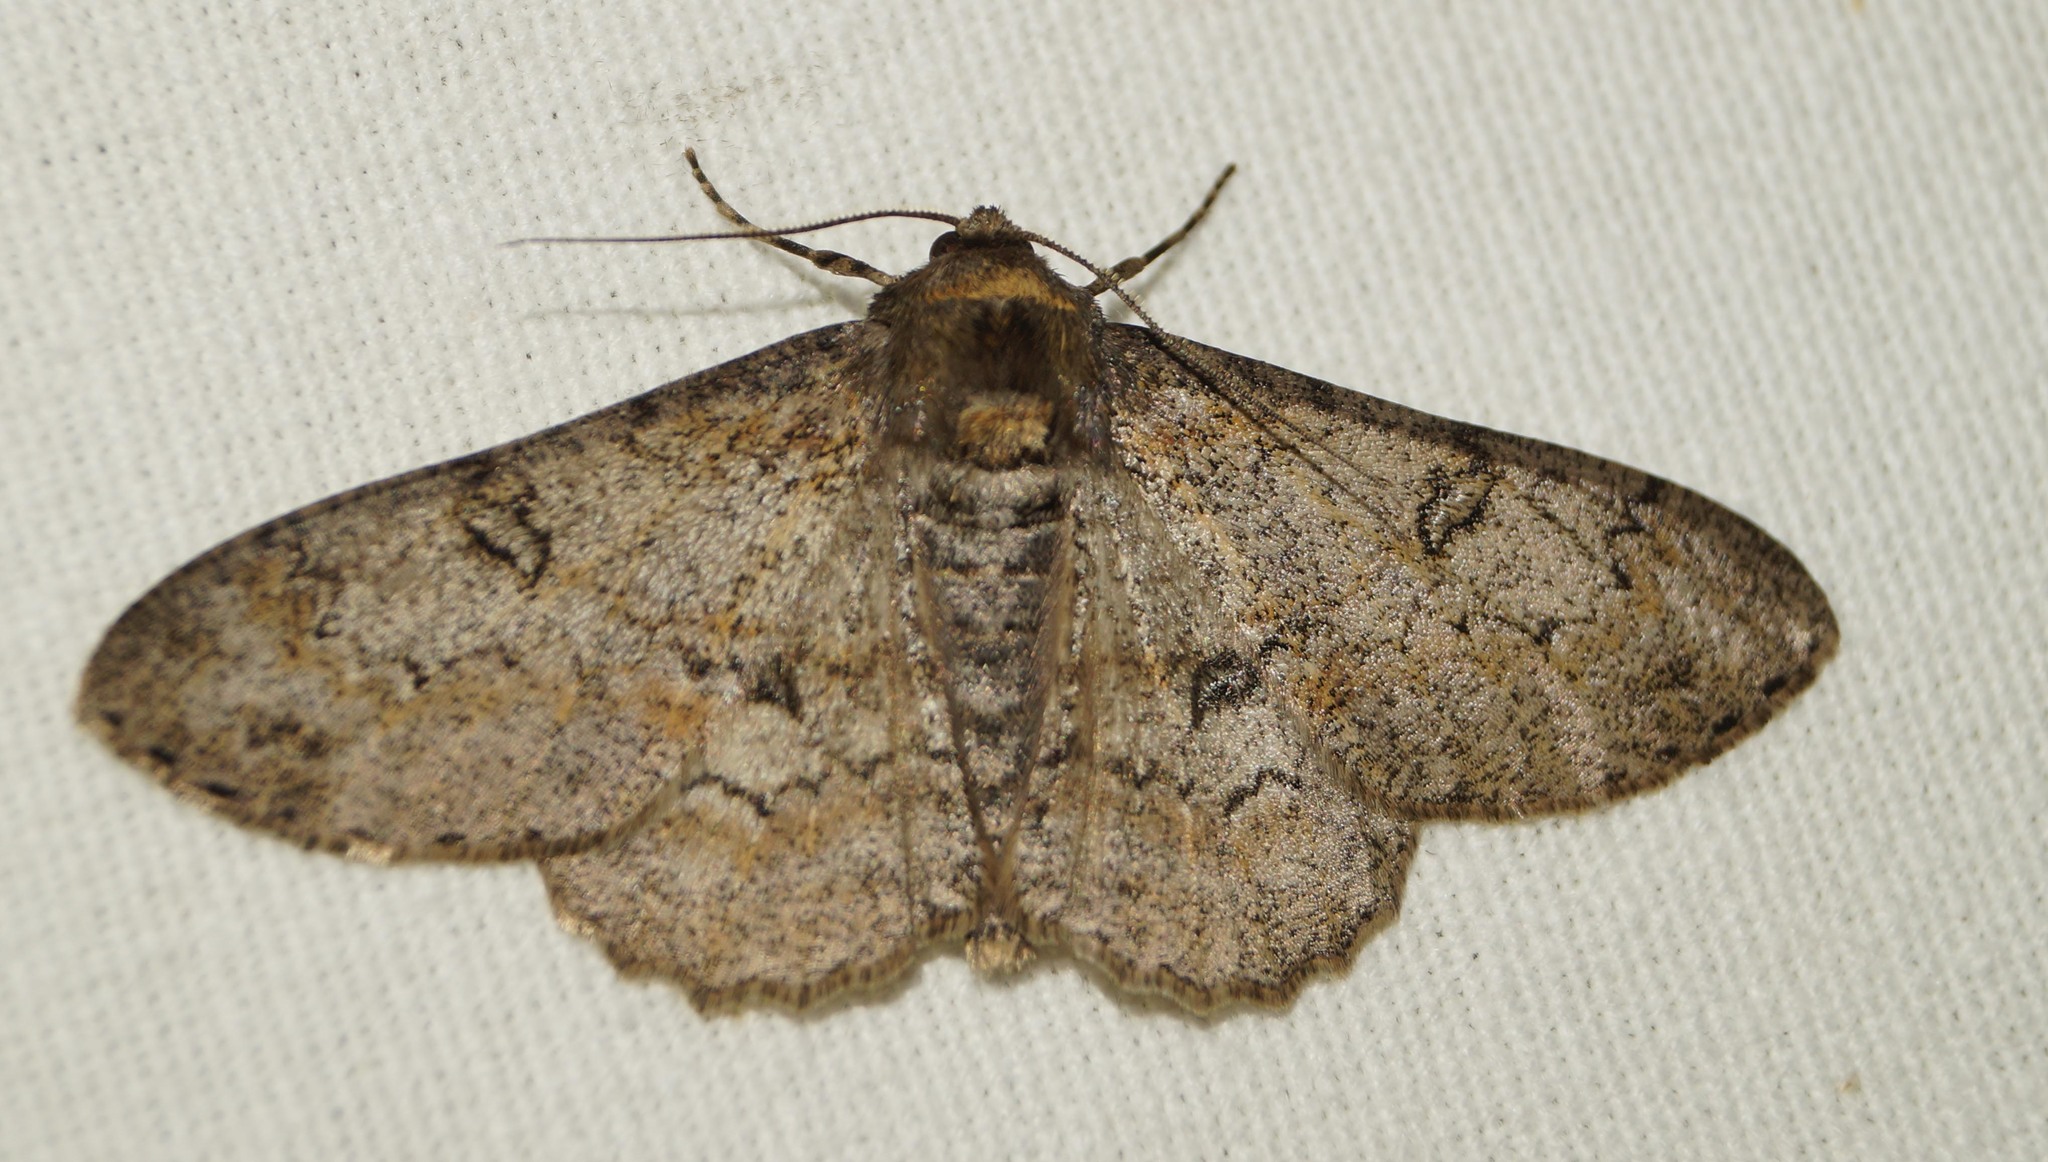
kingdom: Animalia
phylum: Arthropoda
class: Insecta
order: Lepidoptera
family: Geometridae
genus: Ascotis
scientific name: Ascotis selenaria
